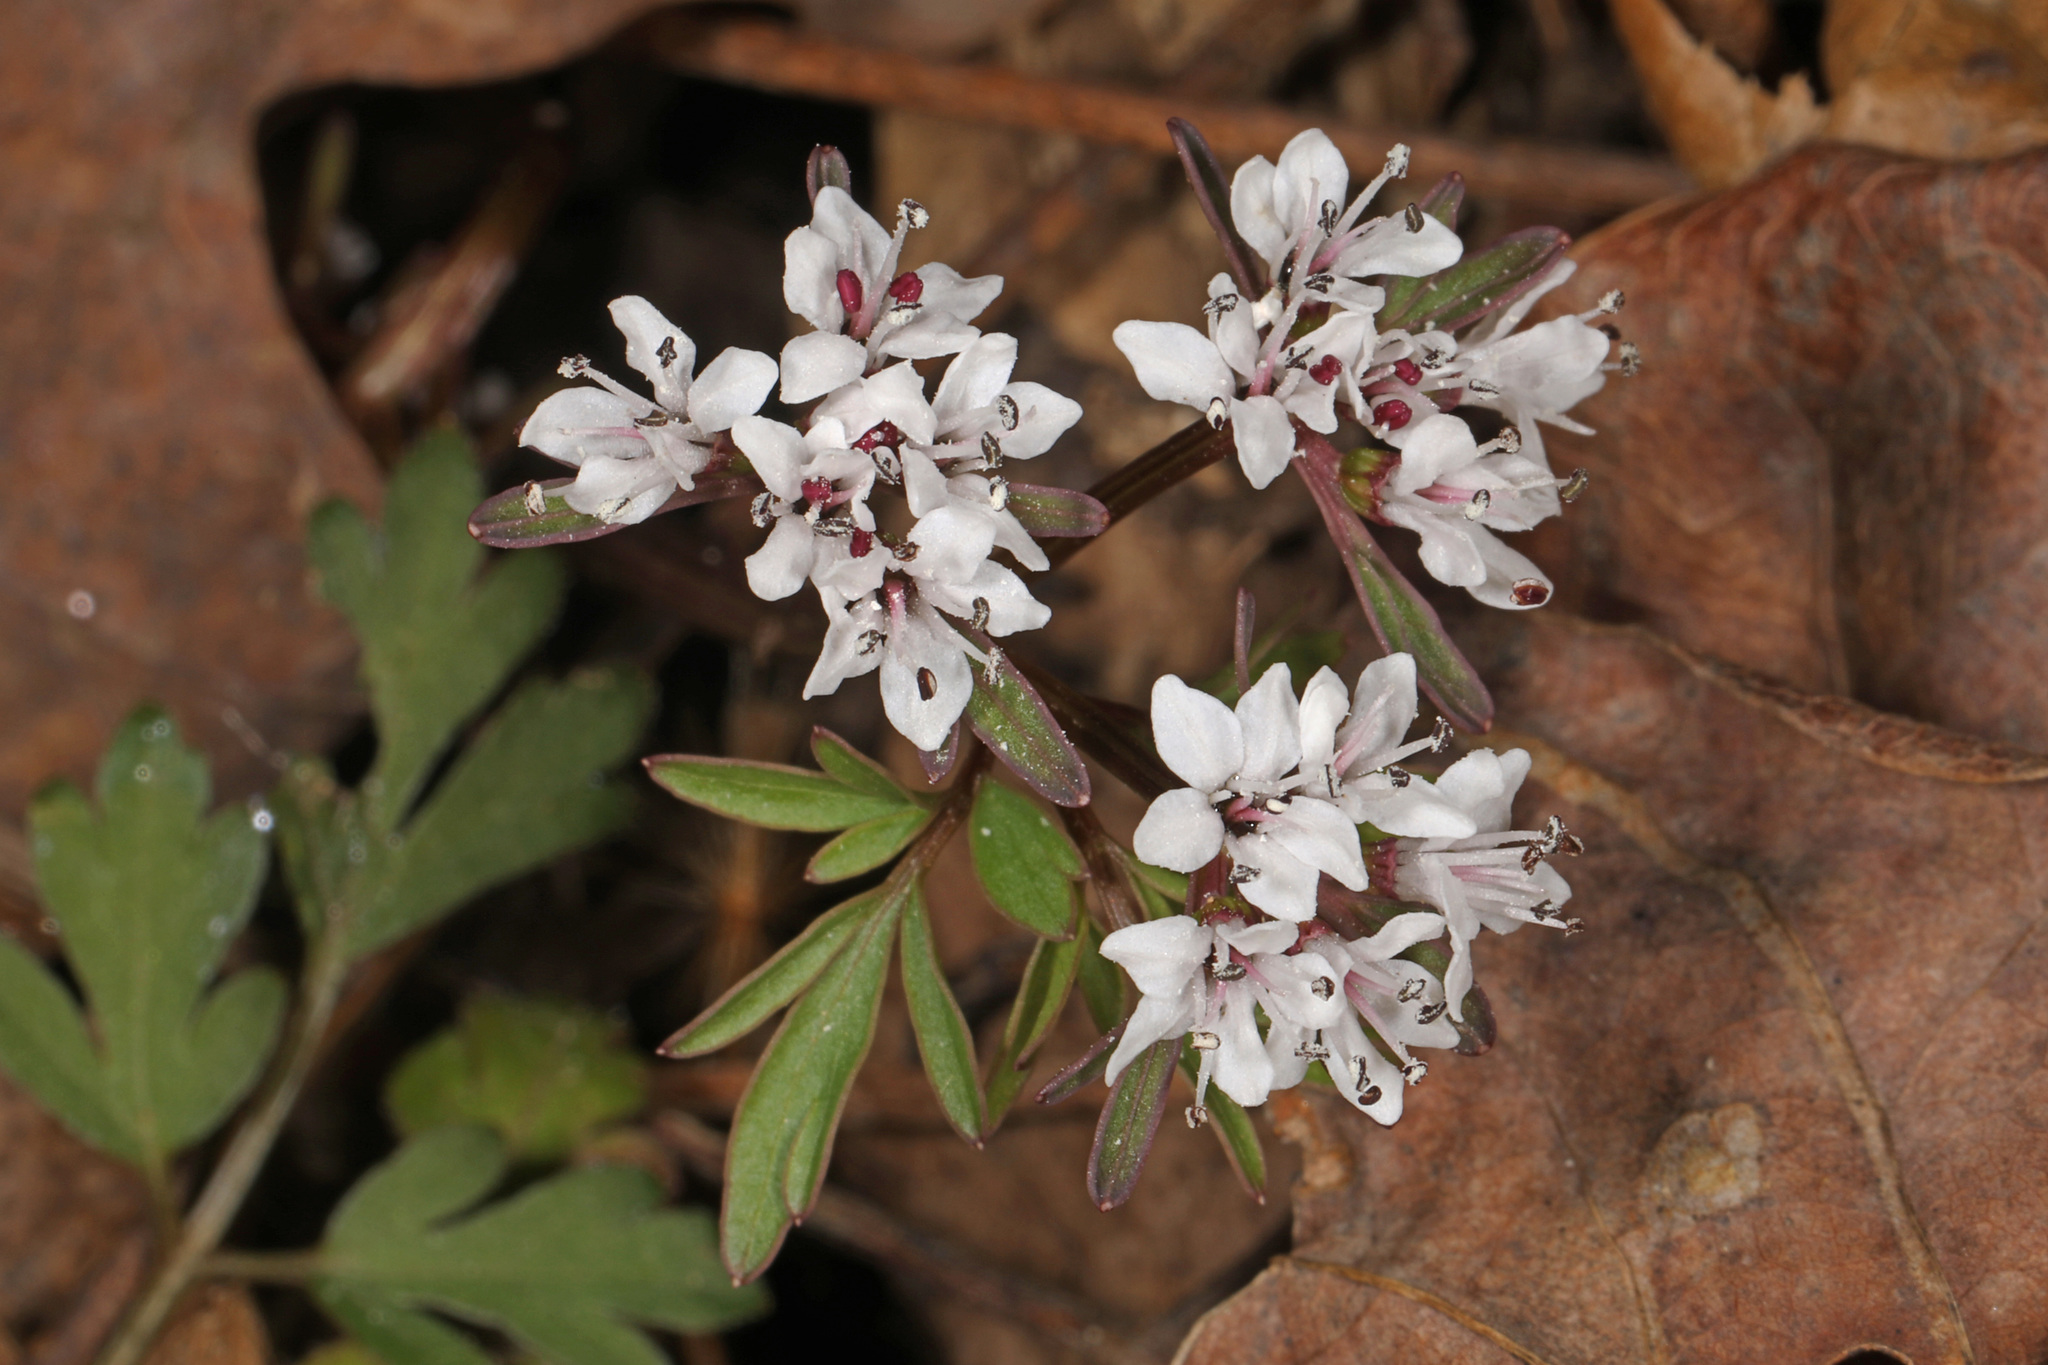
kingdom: Plantae
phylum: Tracheophyta
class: Magnoliopsida
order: Apiales
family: Apiaceae
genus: Erigenia
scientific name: Erigenia bulbosa
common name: Pepper-and-salt
